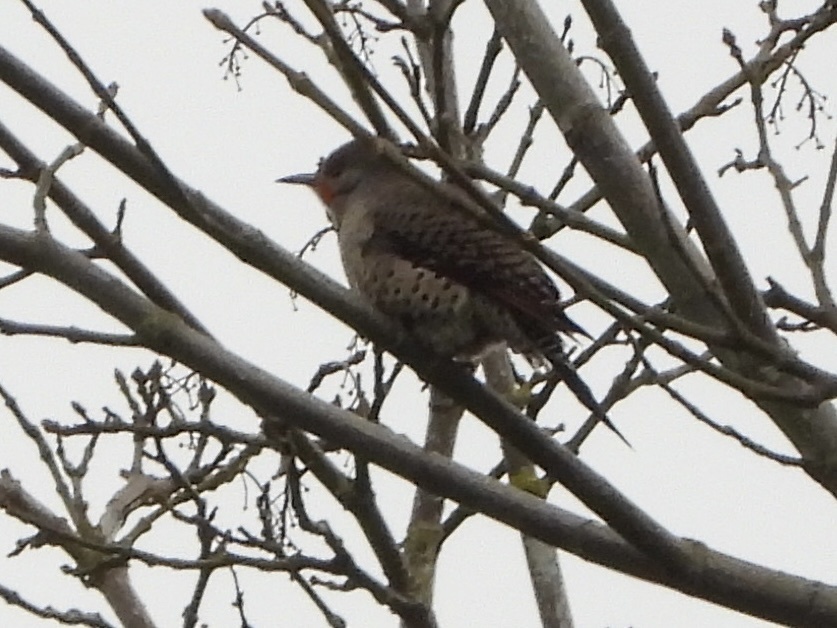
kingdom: Animalia
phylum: Chordata
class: Aves
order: Piciformes
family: Picidae
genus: Colaptes
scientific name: Colaptes auratus
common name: Northern flicker
